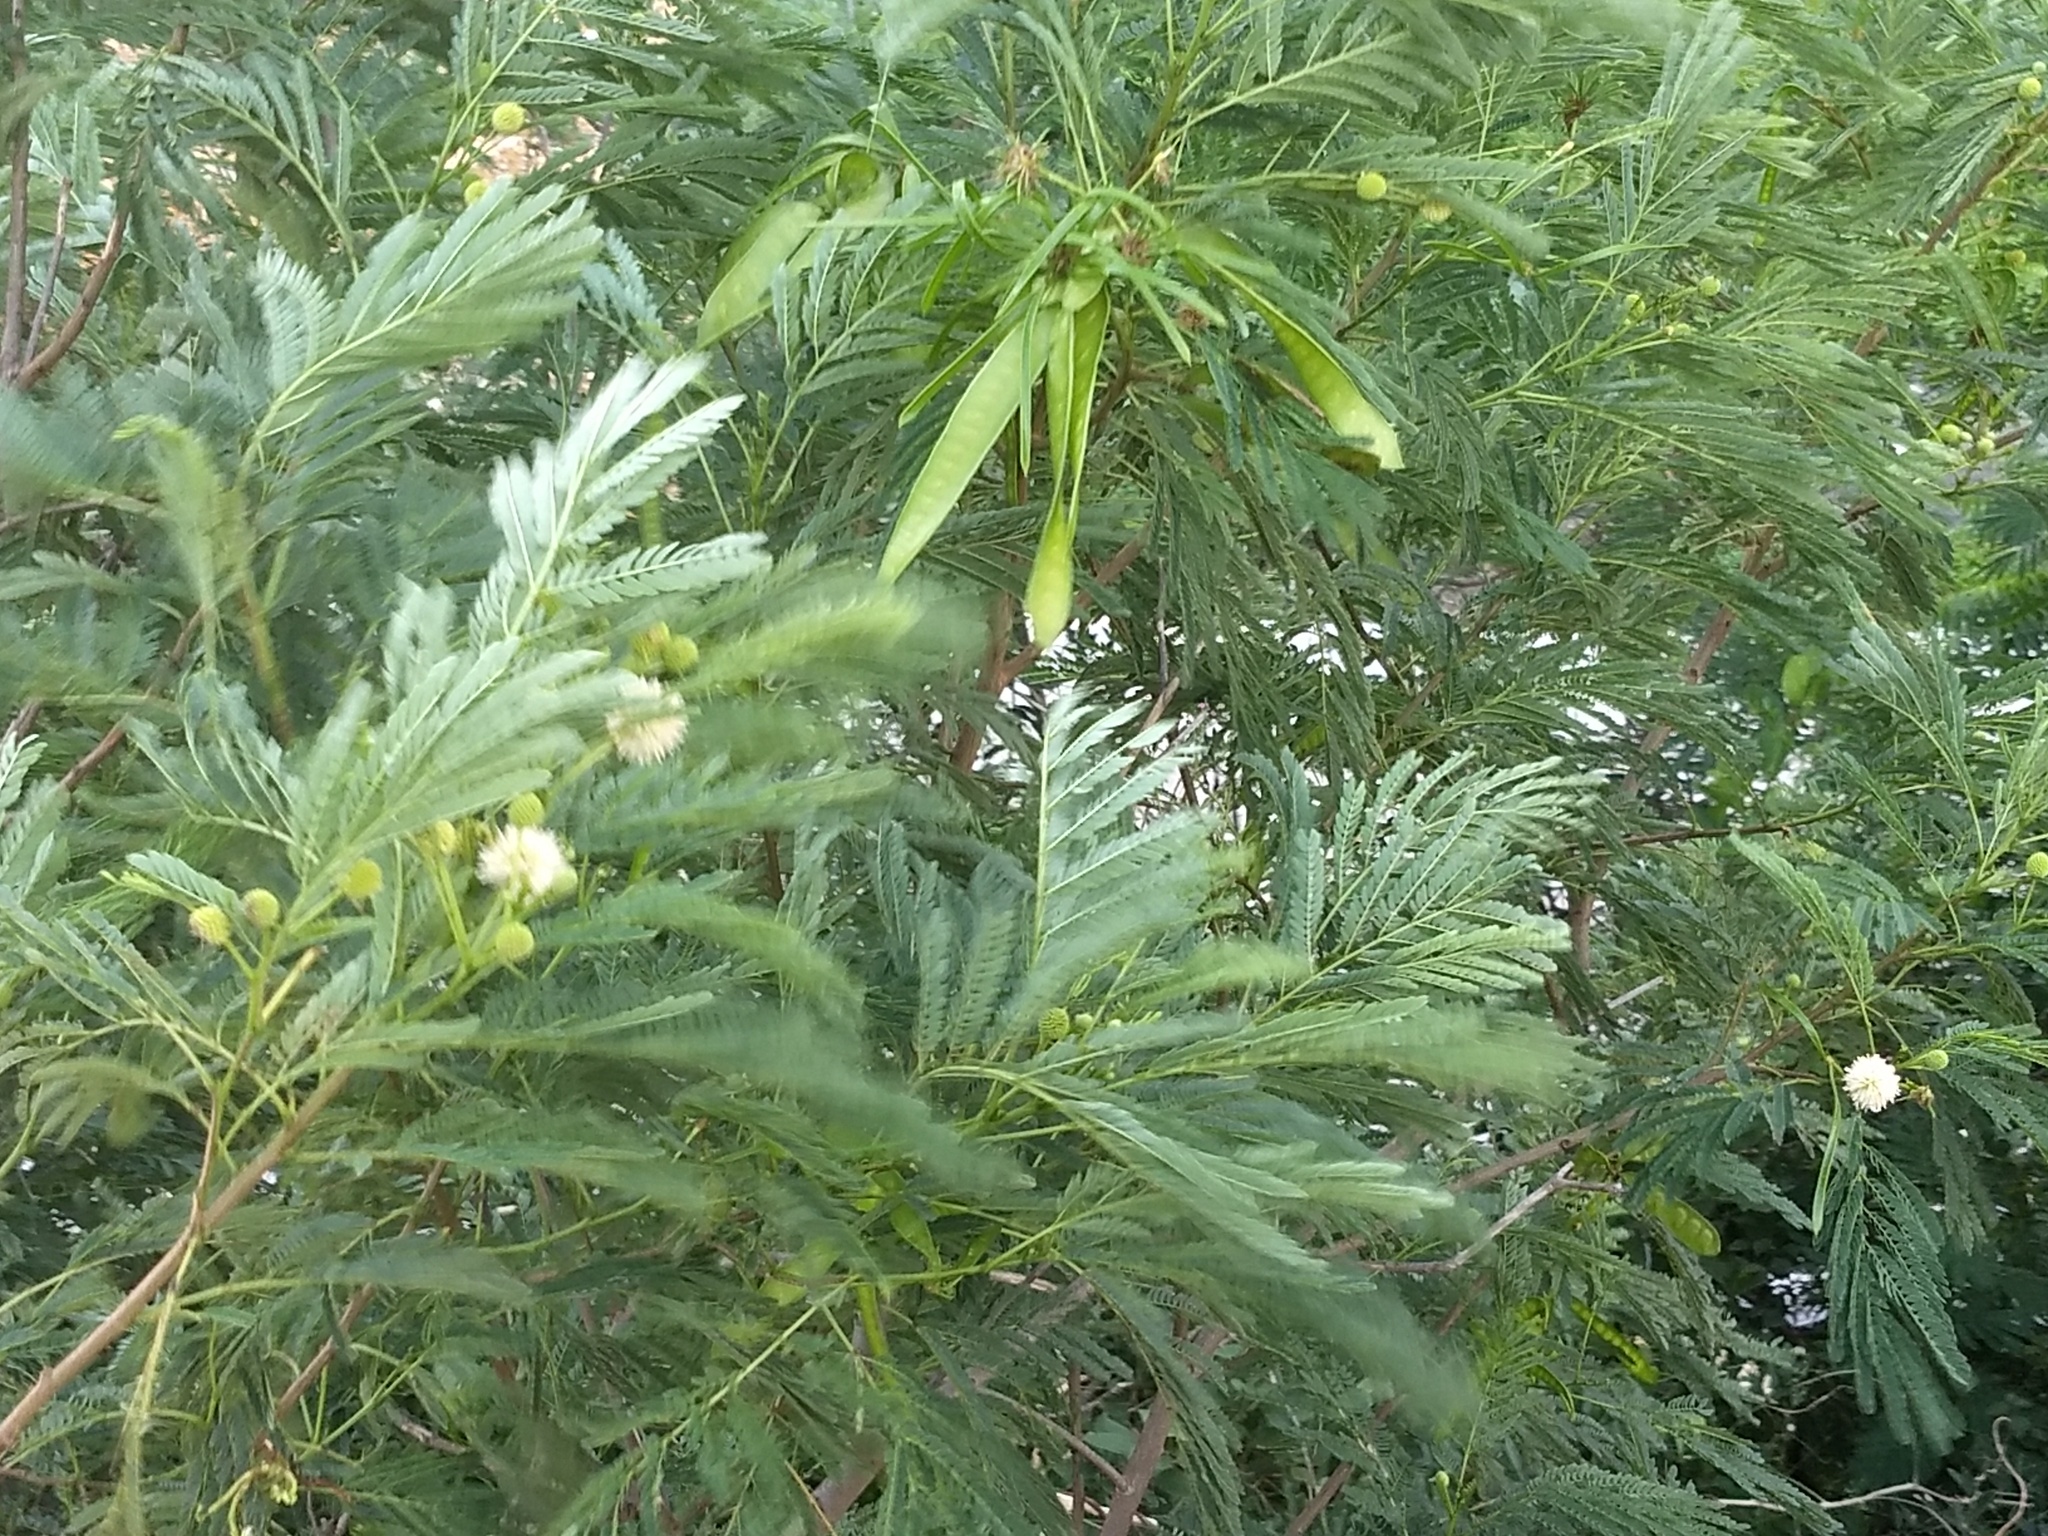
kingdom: Plantae
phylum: Tracheophyta
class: Magnoliopsida
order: Fabales
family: Fabaceae
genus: Leucaena
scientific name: Leucaena leucocephala
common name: White leadtree
